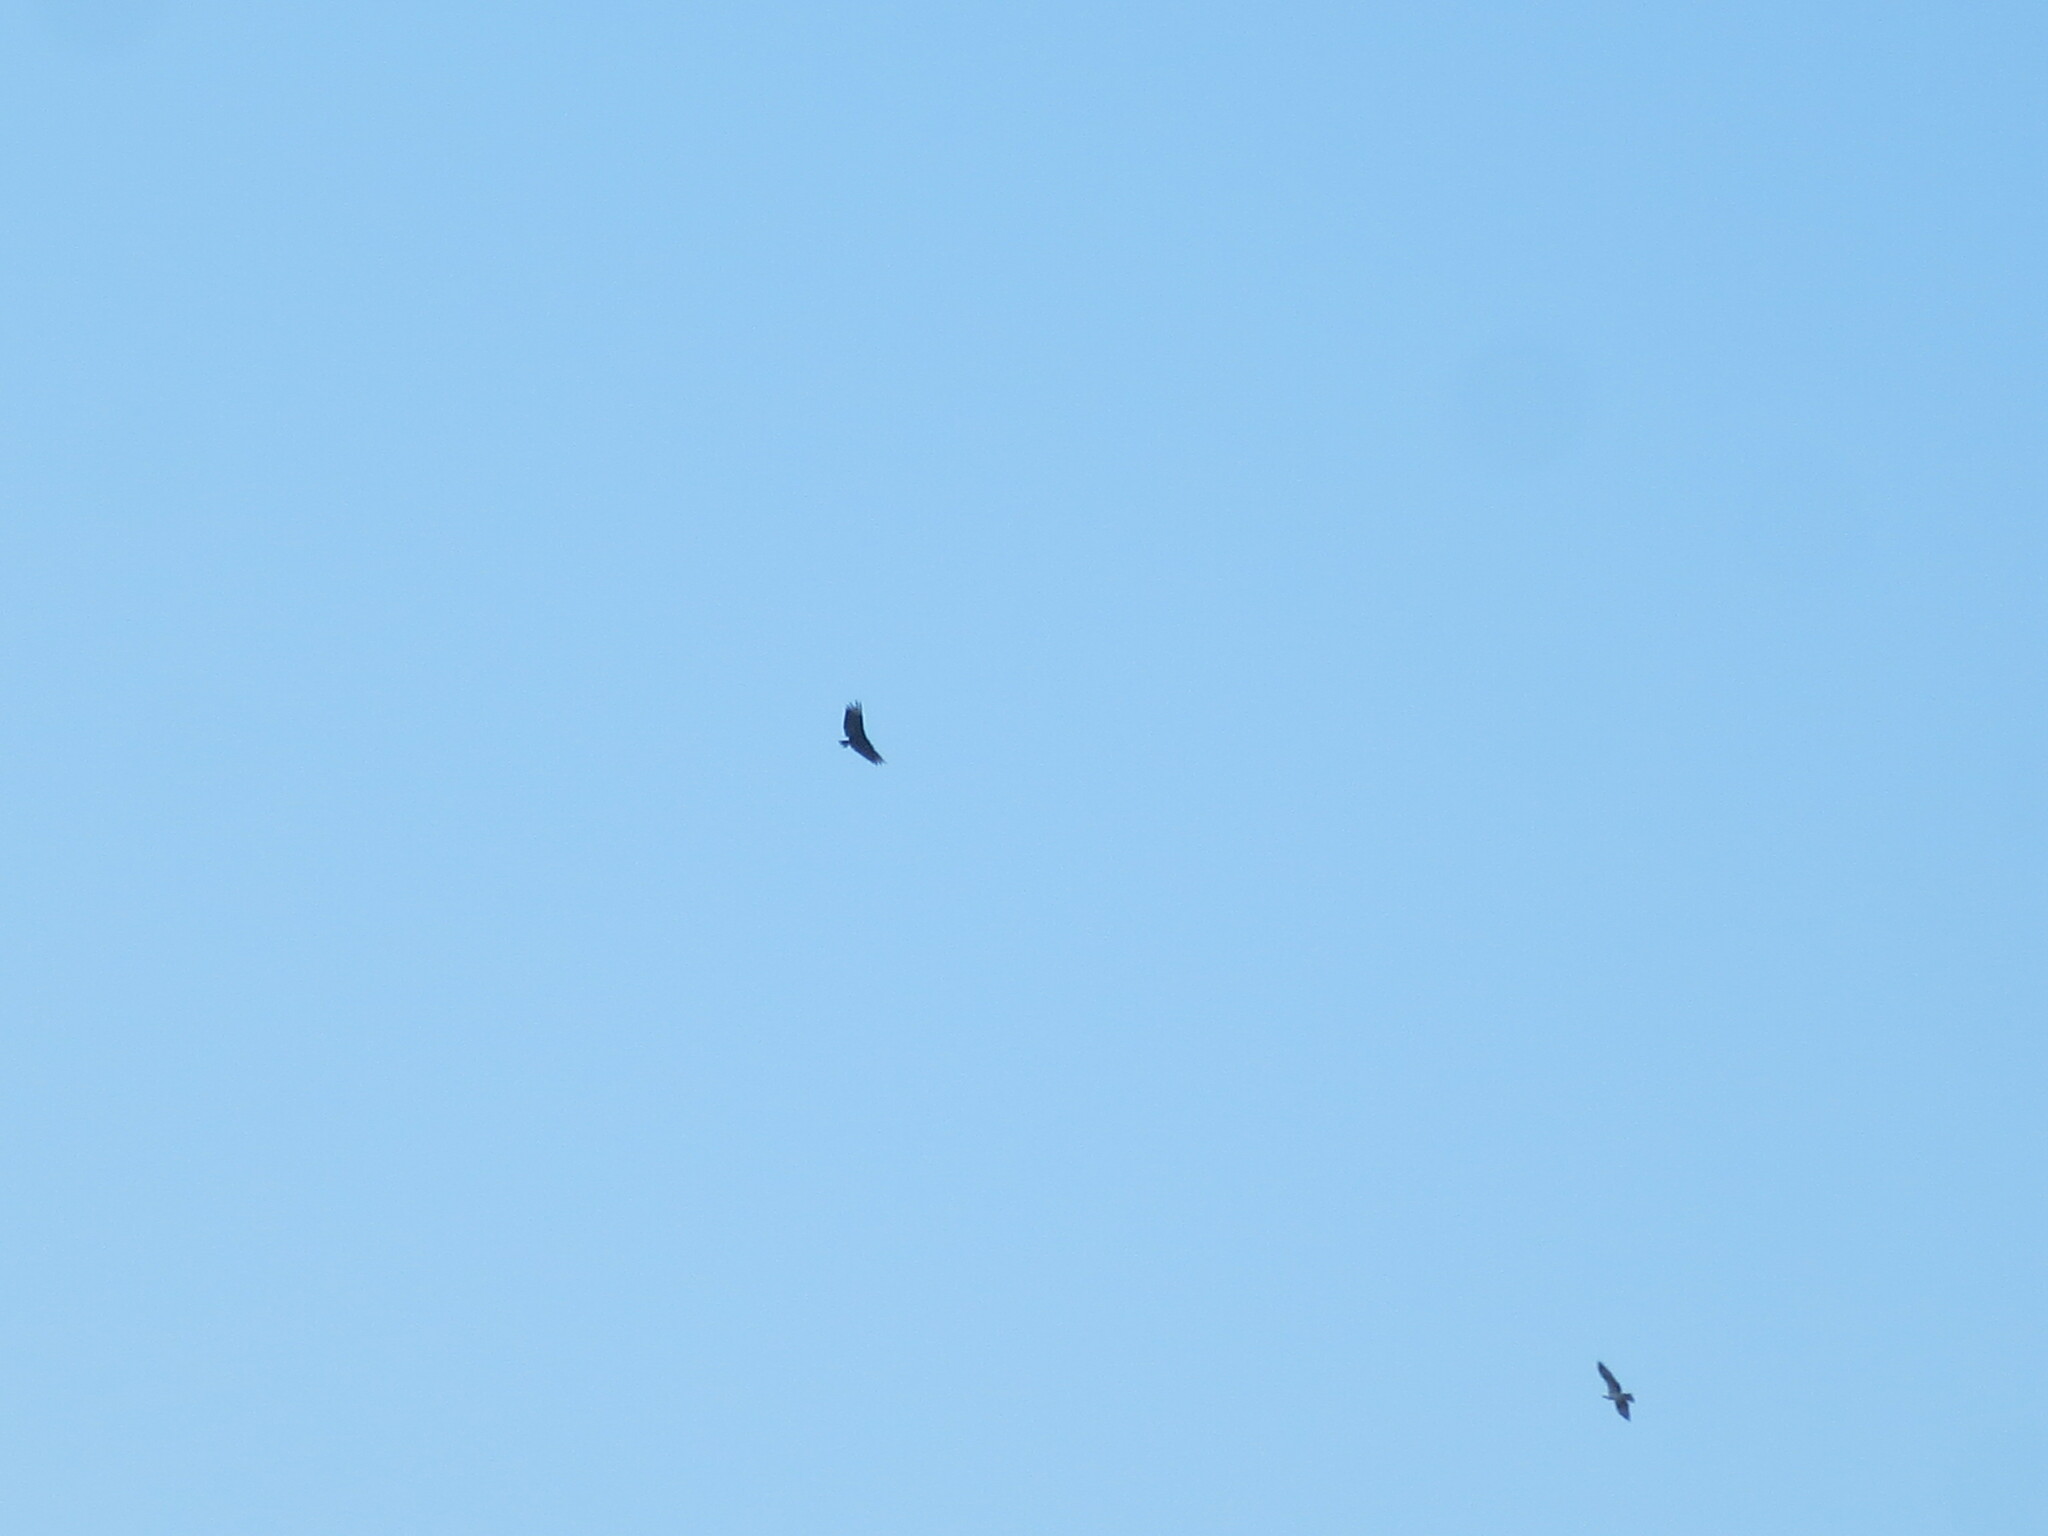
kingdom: Animalia
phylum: Chordata
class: Aves
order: Accipitriformes
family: Cathartidae
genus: Coragyps
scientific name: Coragyps atratus
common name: Black vulture
